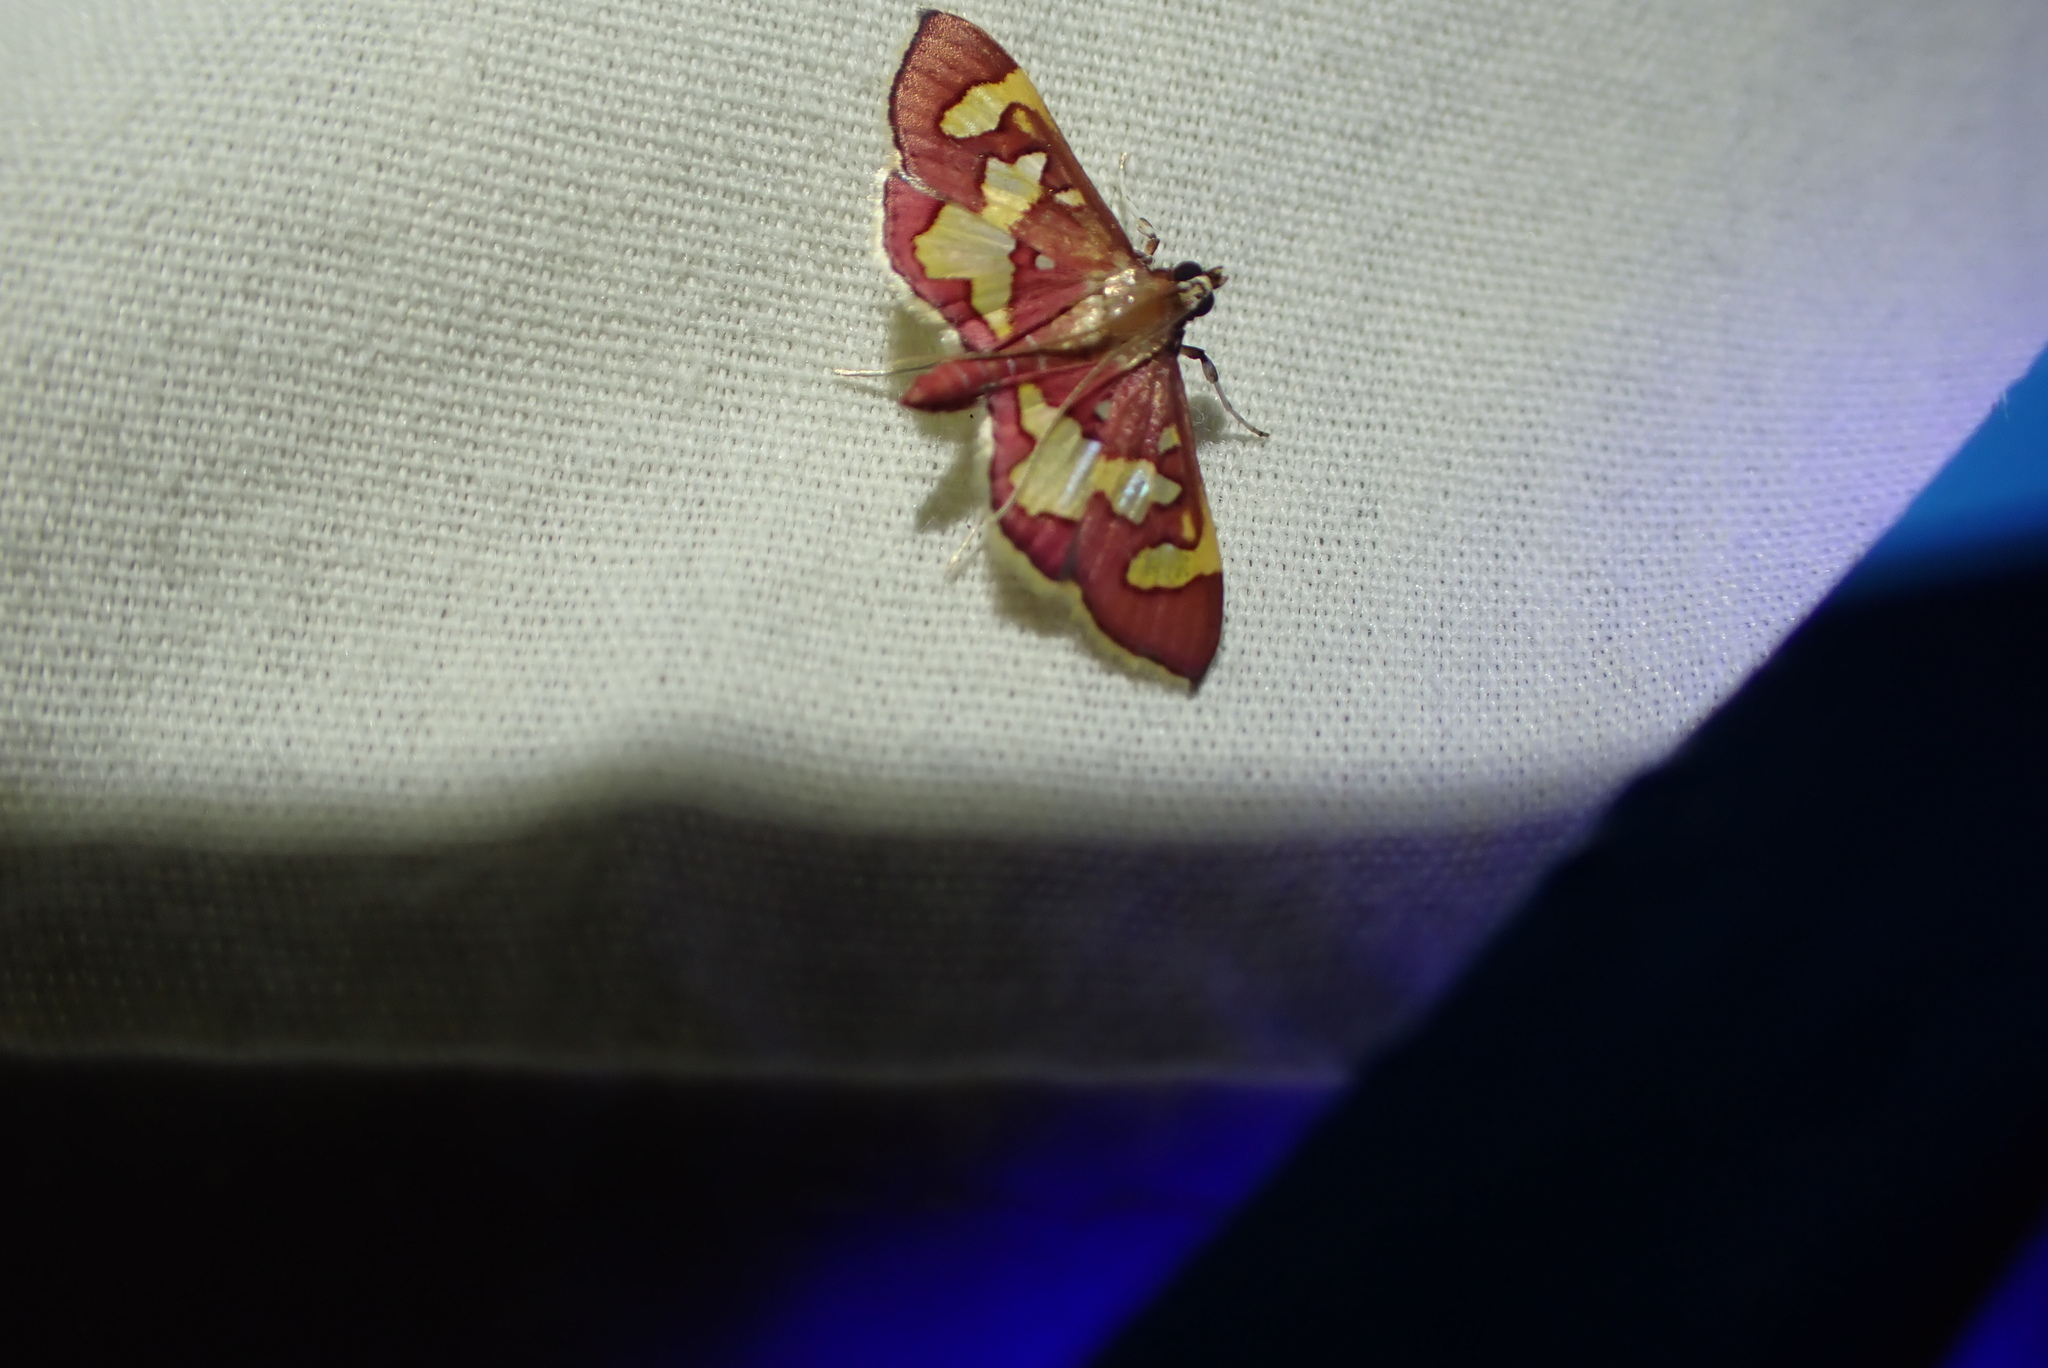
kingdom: Animalia
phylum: Arthropoda
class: Insecta
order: Lepidoptera
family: Crambidae
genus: Trithyris
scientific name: Trithyris Prenesta rubrocinctalis
